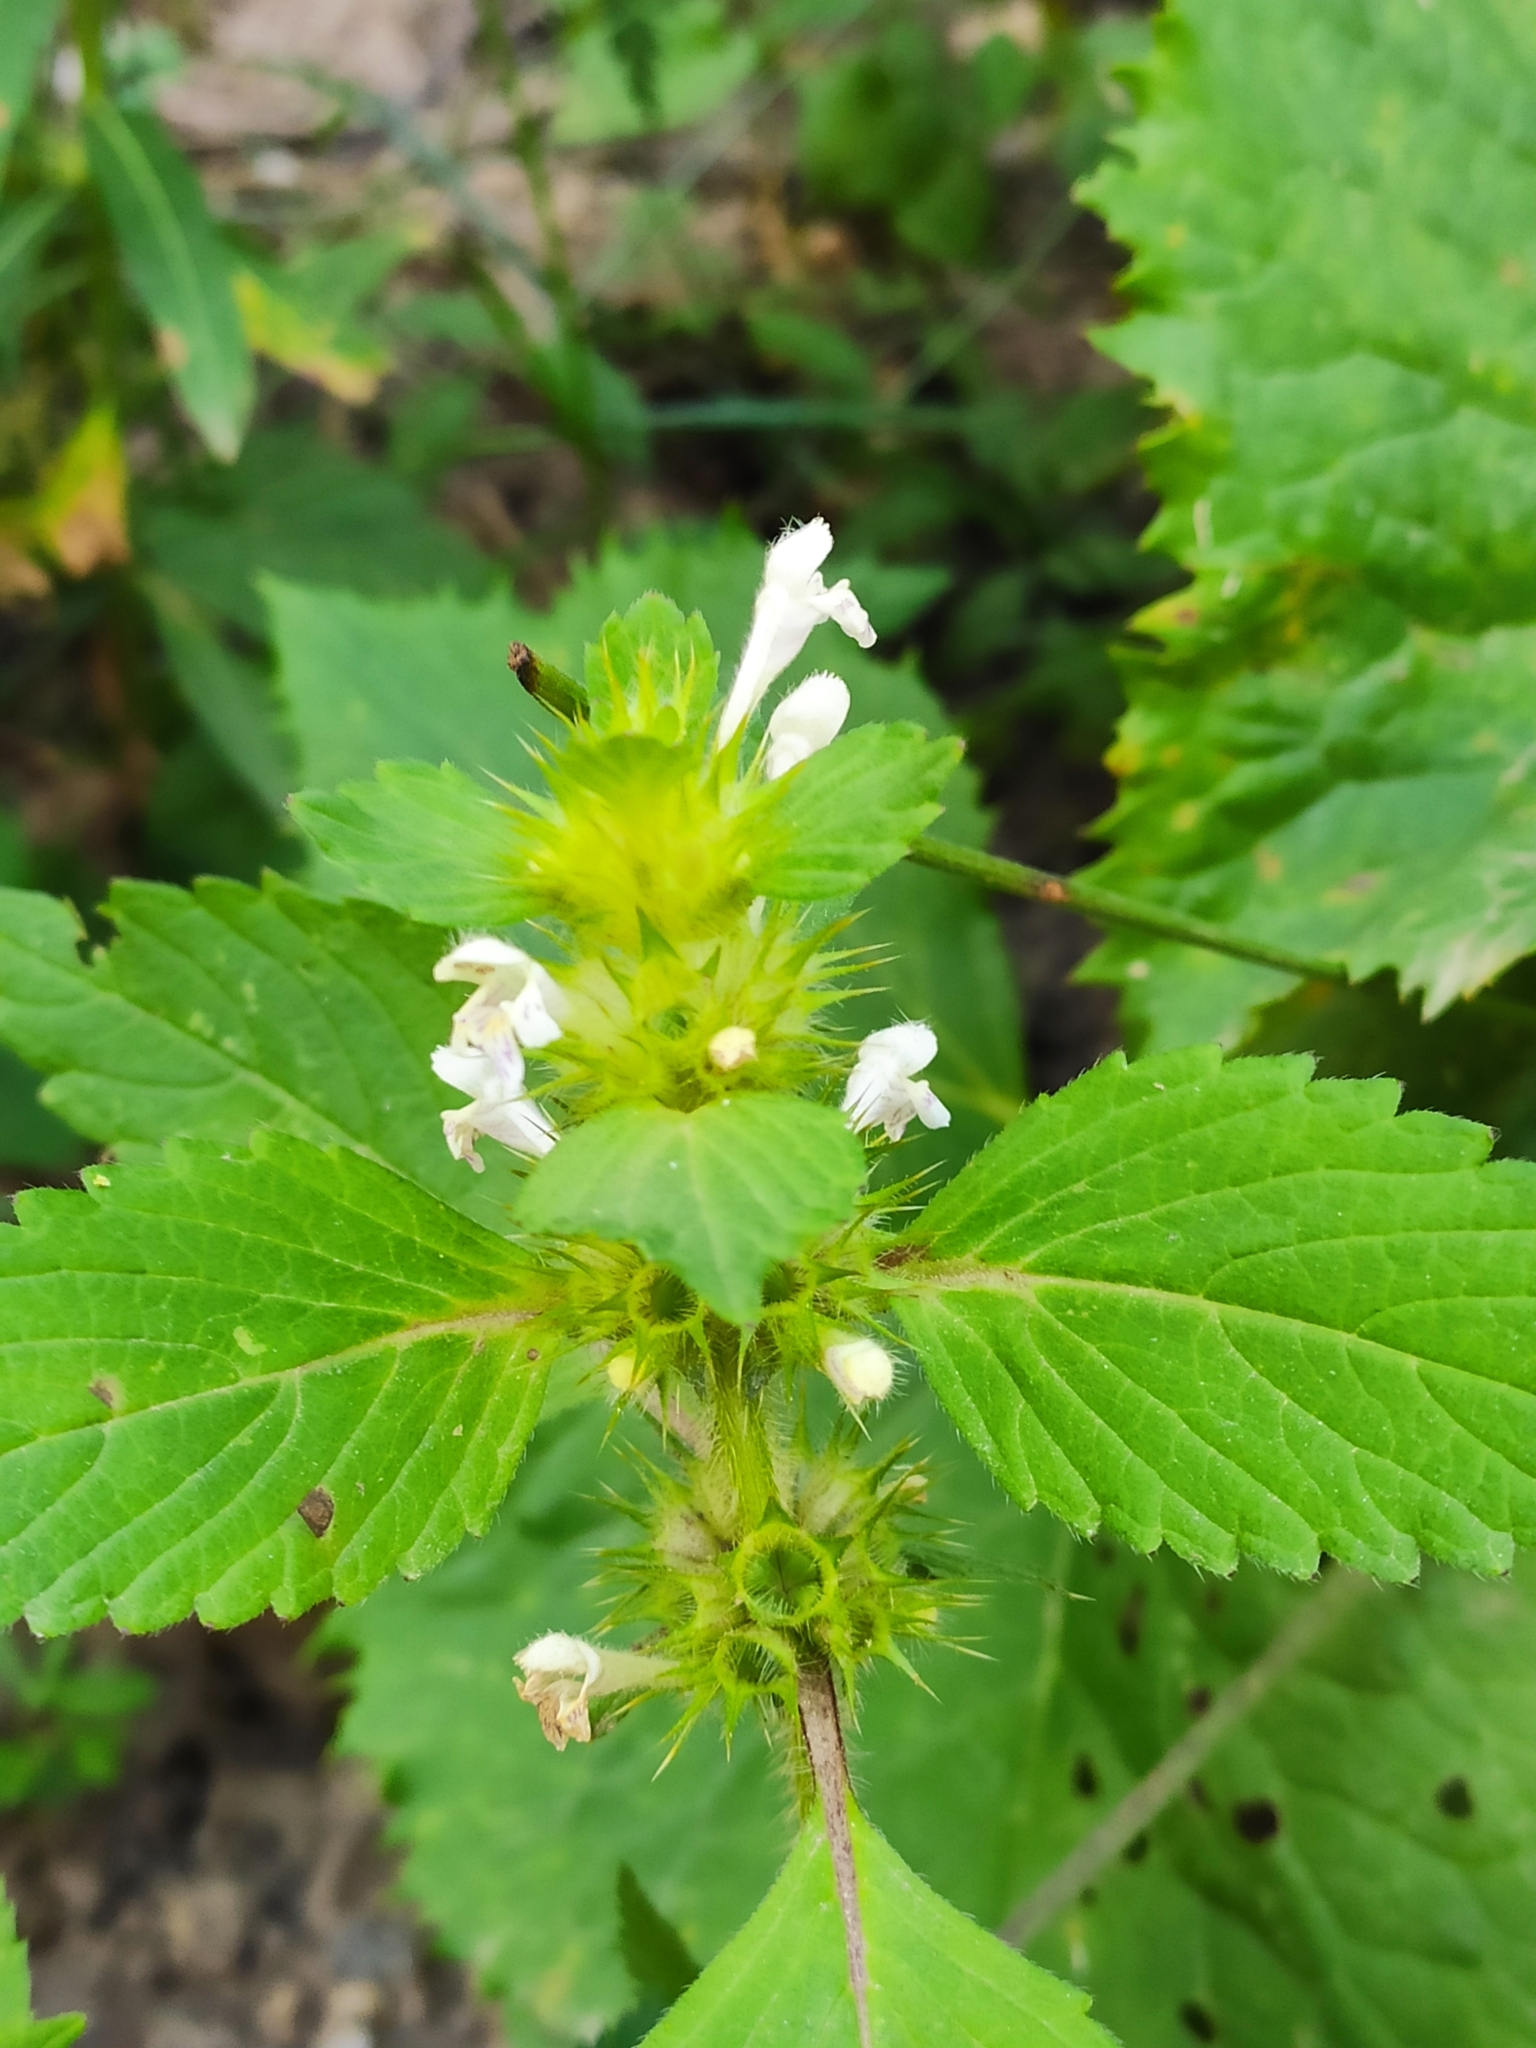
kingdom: Plantae
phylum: Tracheophyta
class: Magnoliopsida
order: Lamiales
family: Lamiaceae
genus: Galeopsis
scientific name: Galeopsis bifida
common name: Bifid hemp-nettle
